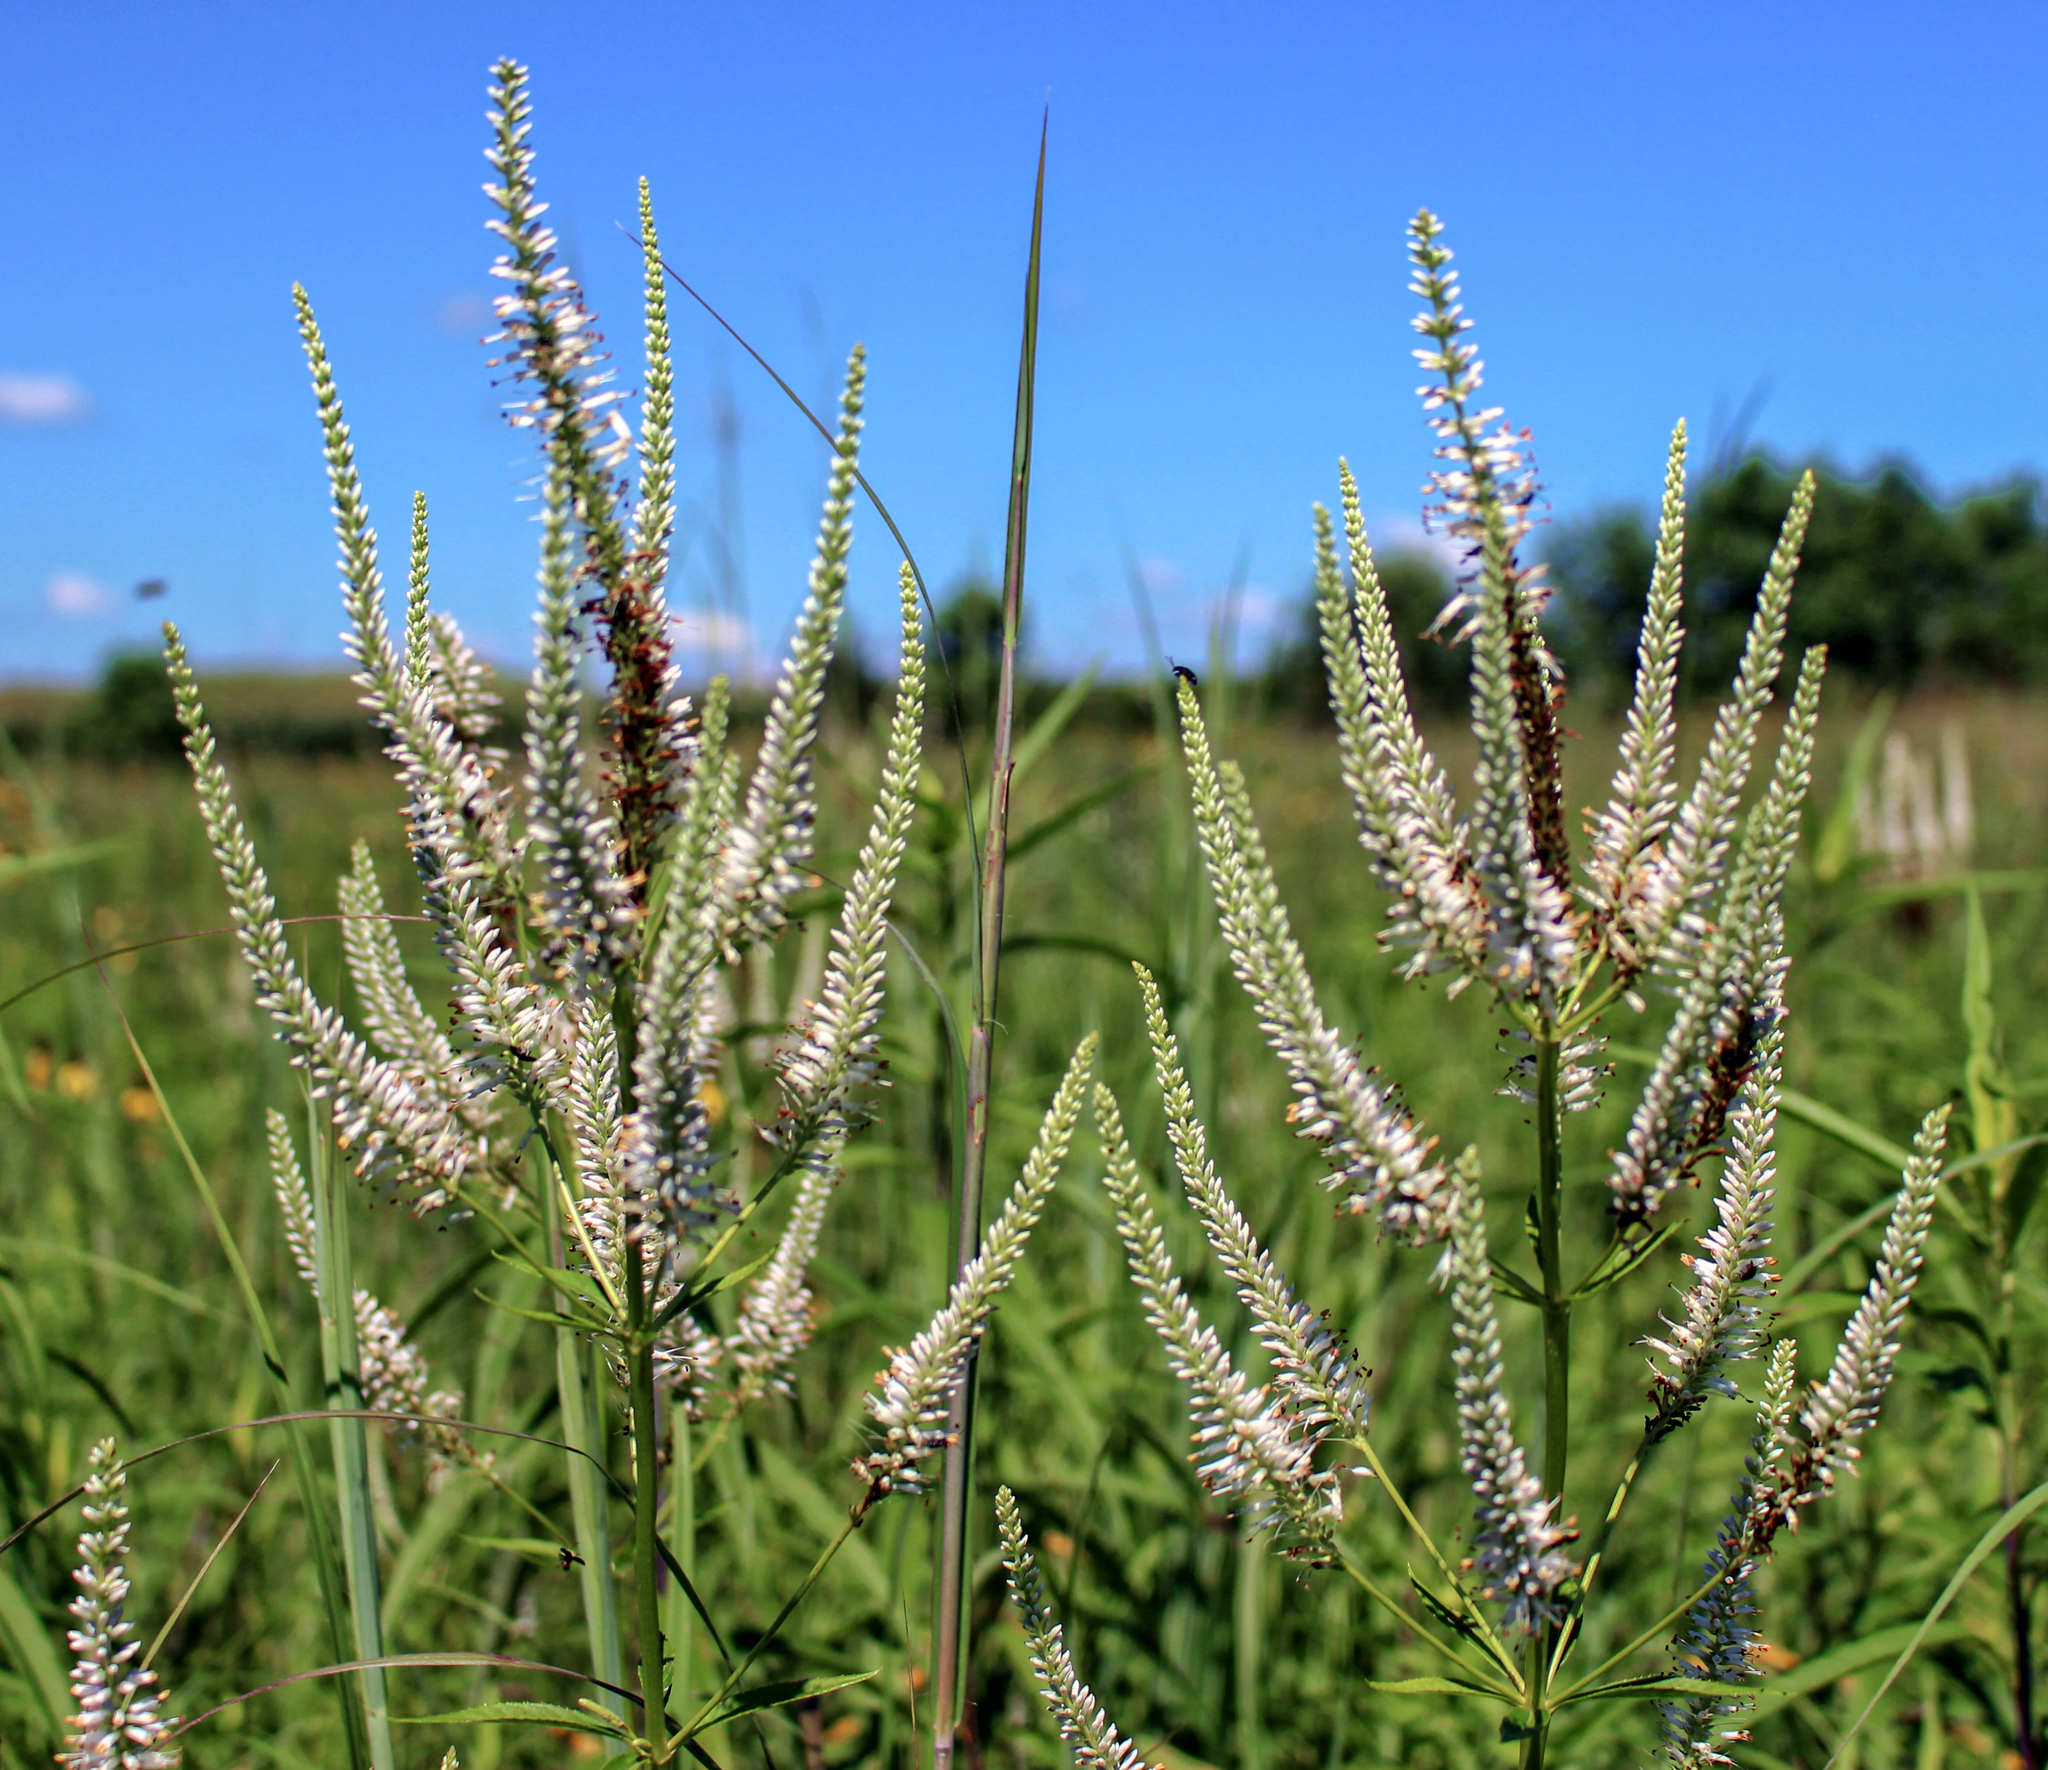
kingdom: Plantae
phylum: Tracheophyta
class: Magnoliopsida
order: Lamiales
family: Plantaginaceae
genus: Veronicastrum
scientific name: Veronicastrum virginicum
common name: Blackroot
